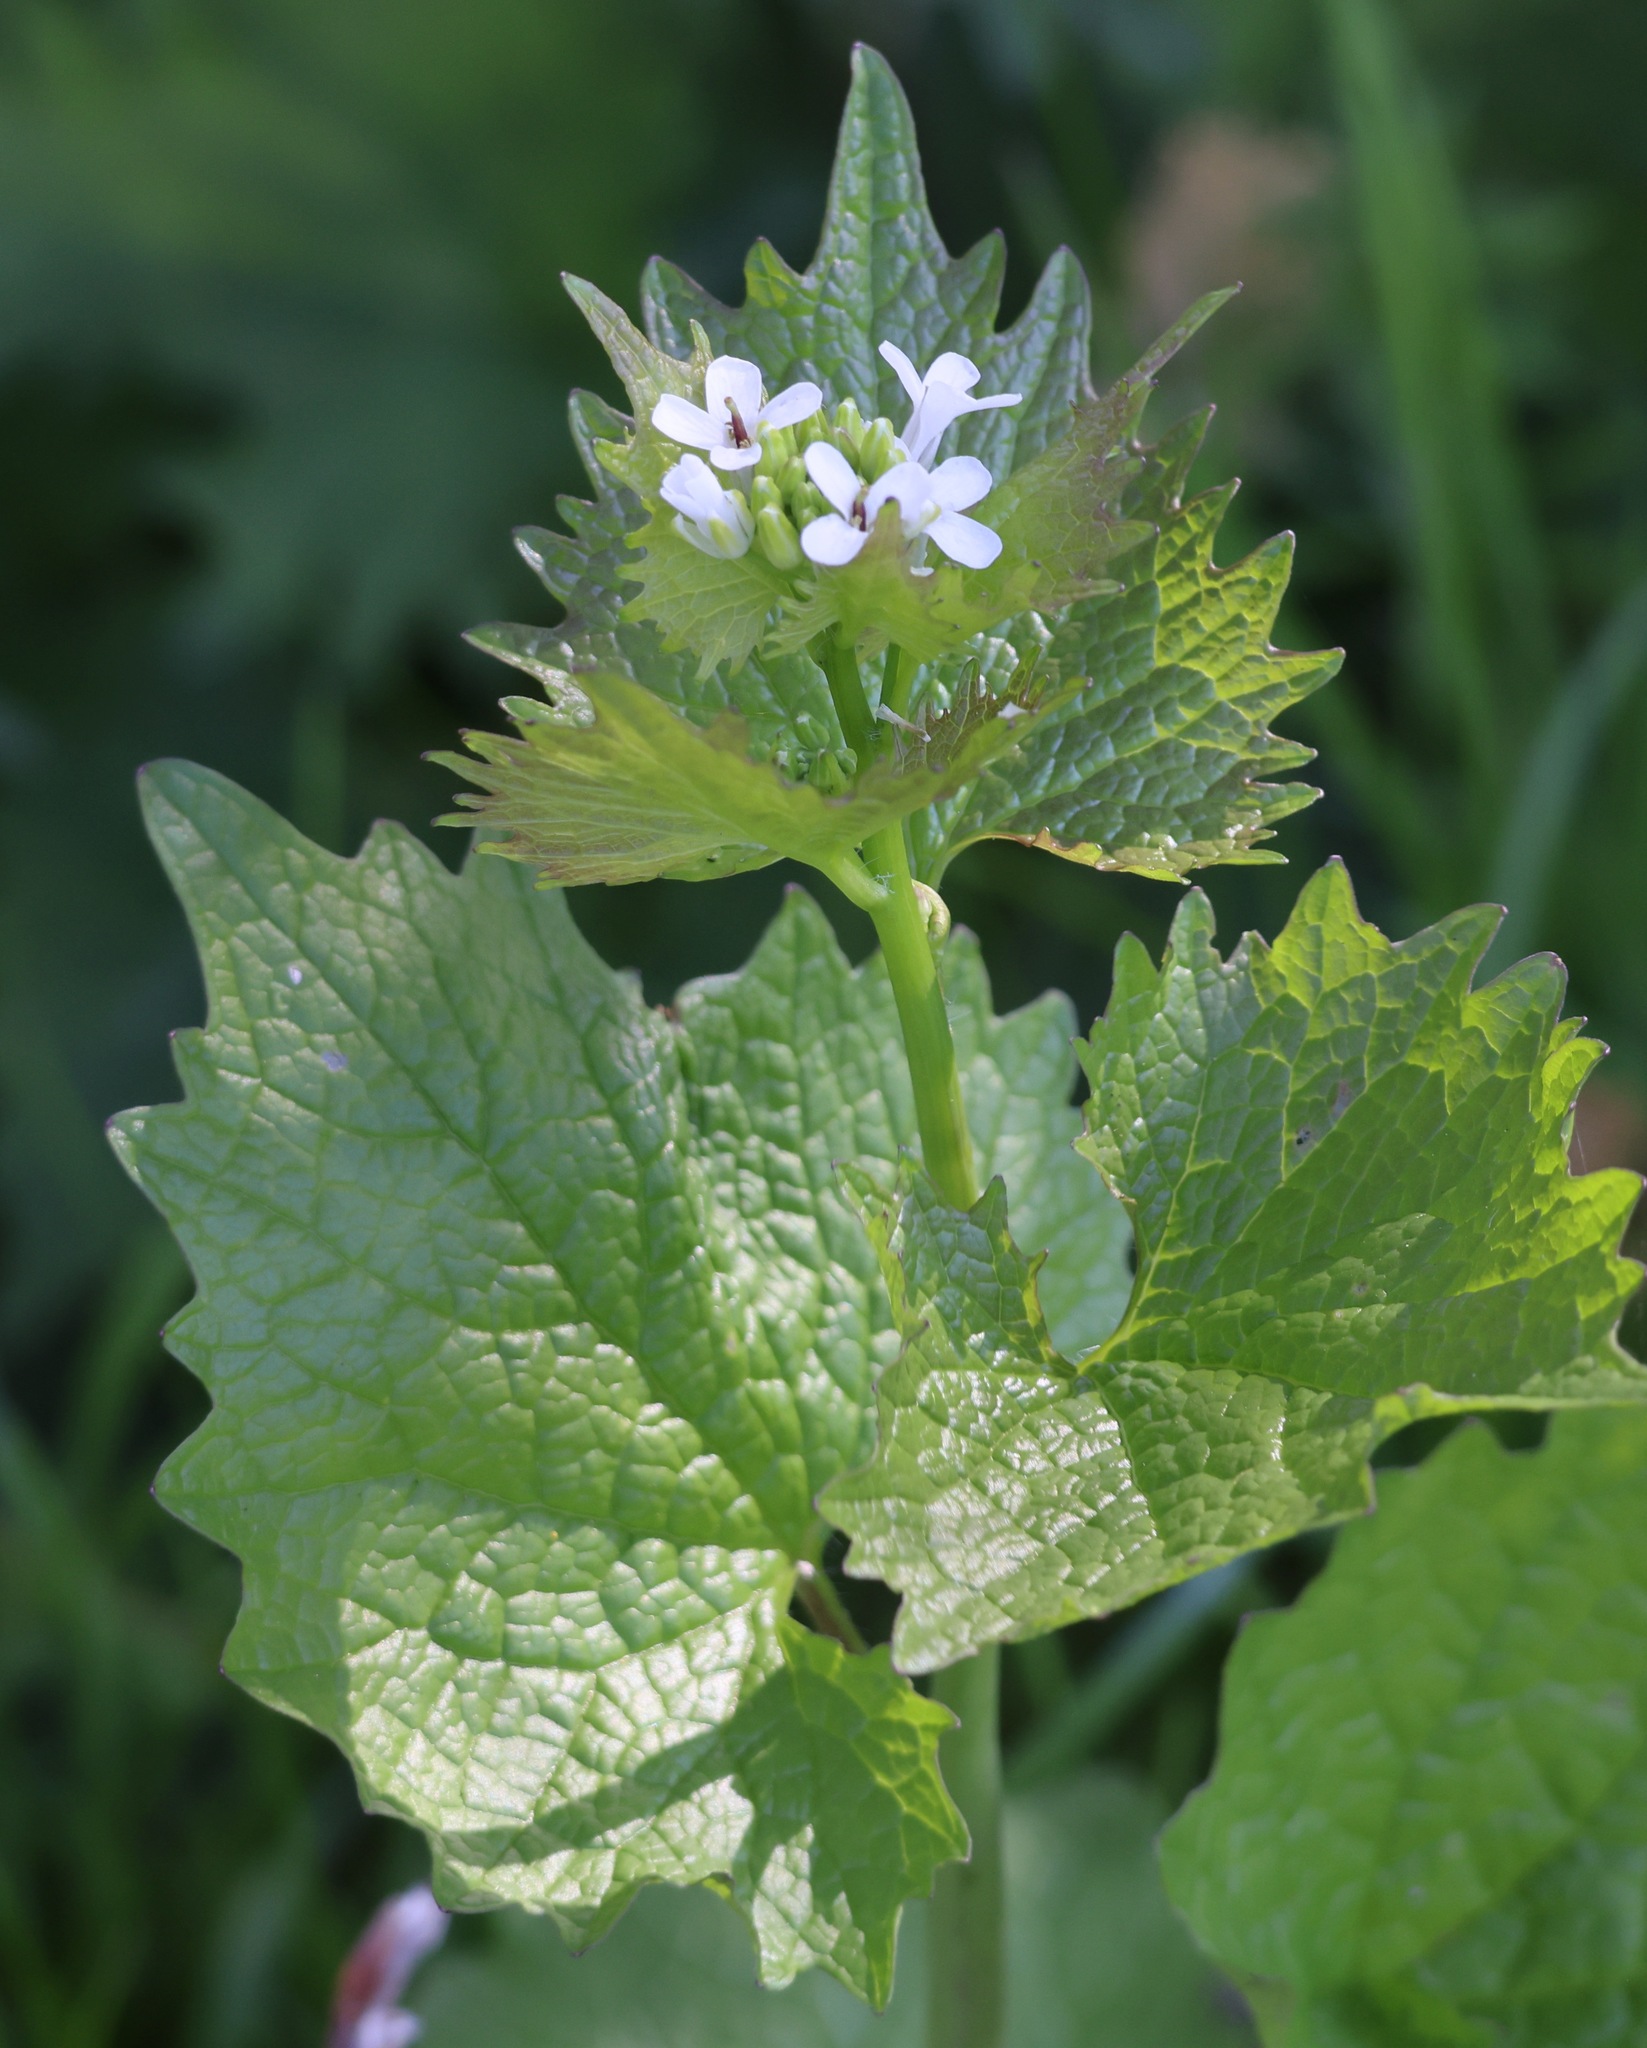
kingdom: Plantae
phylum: Tracheophyta
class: Magnoliopsida
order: Brassicales
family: Brassicaceae
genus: Alliaria
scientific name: Alliaria petiolata
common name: Garlic mustard
